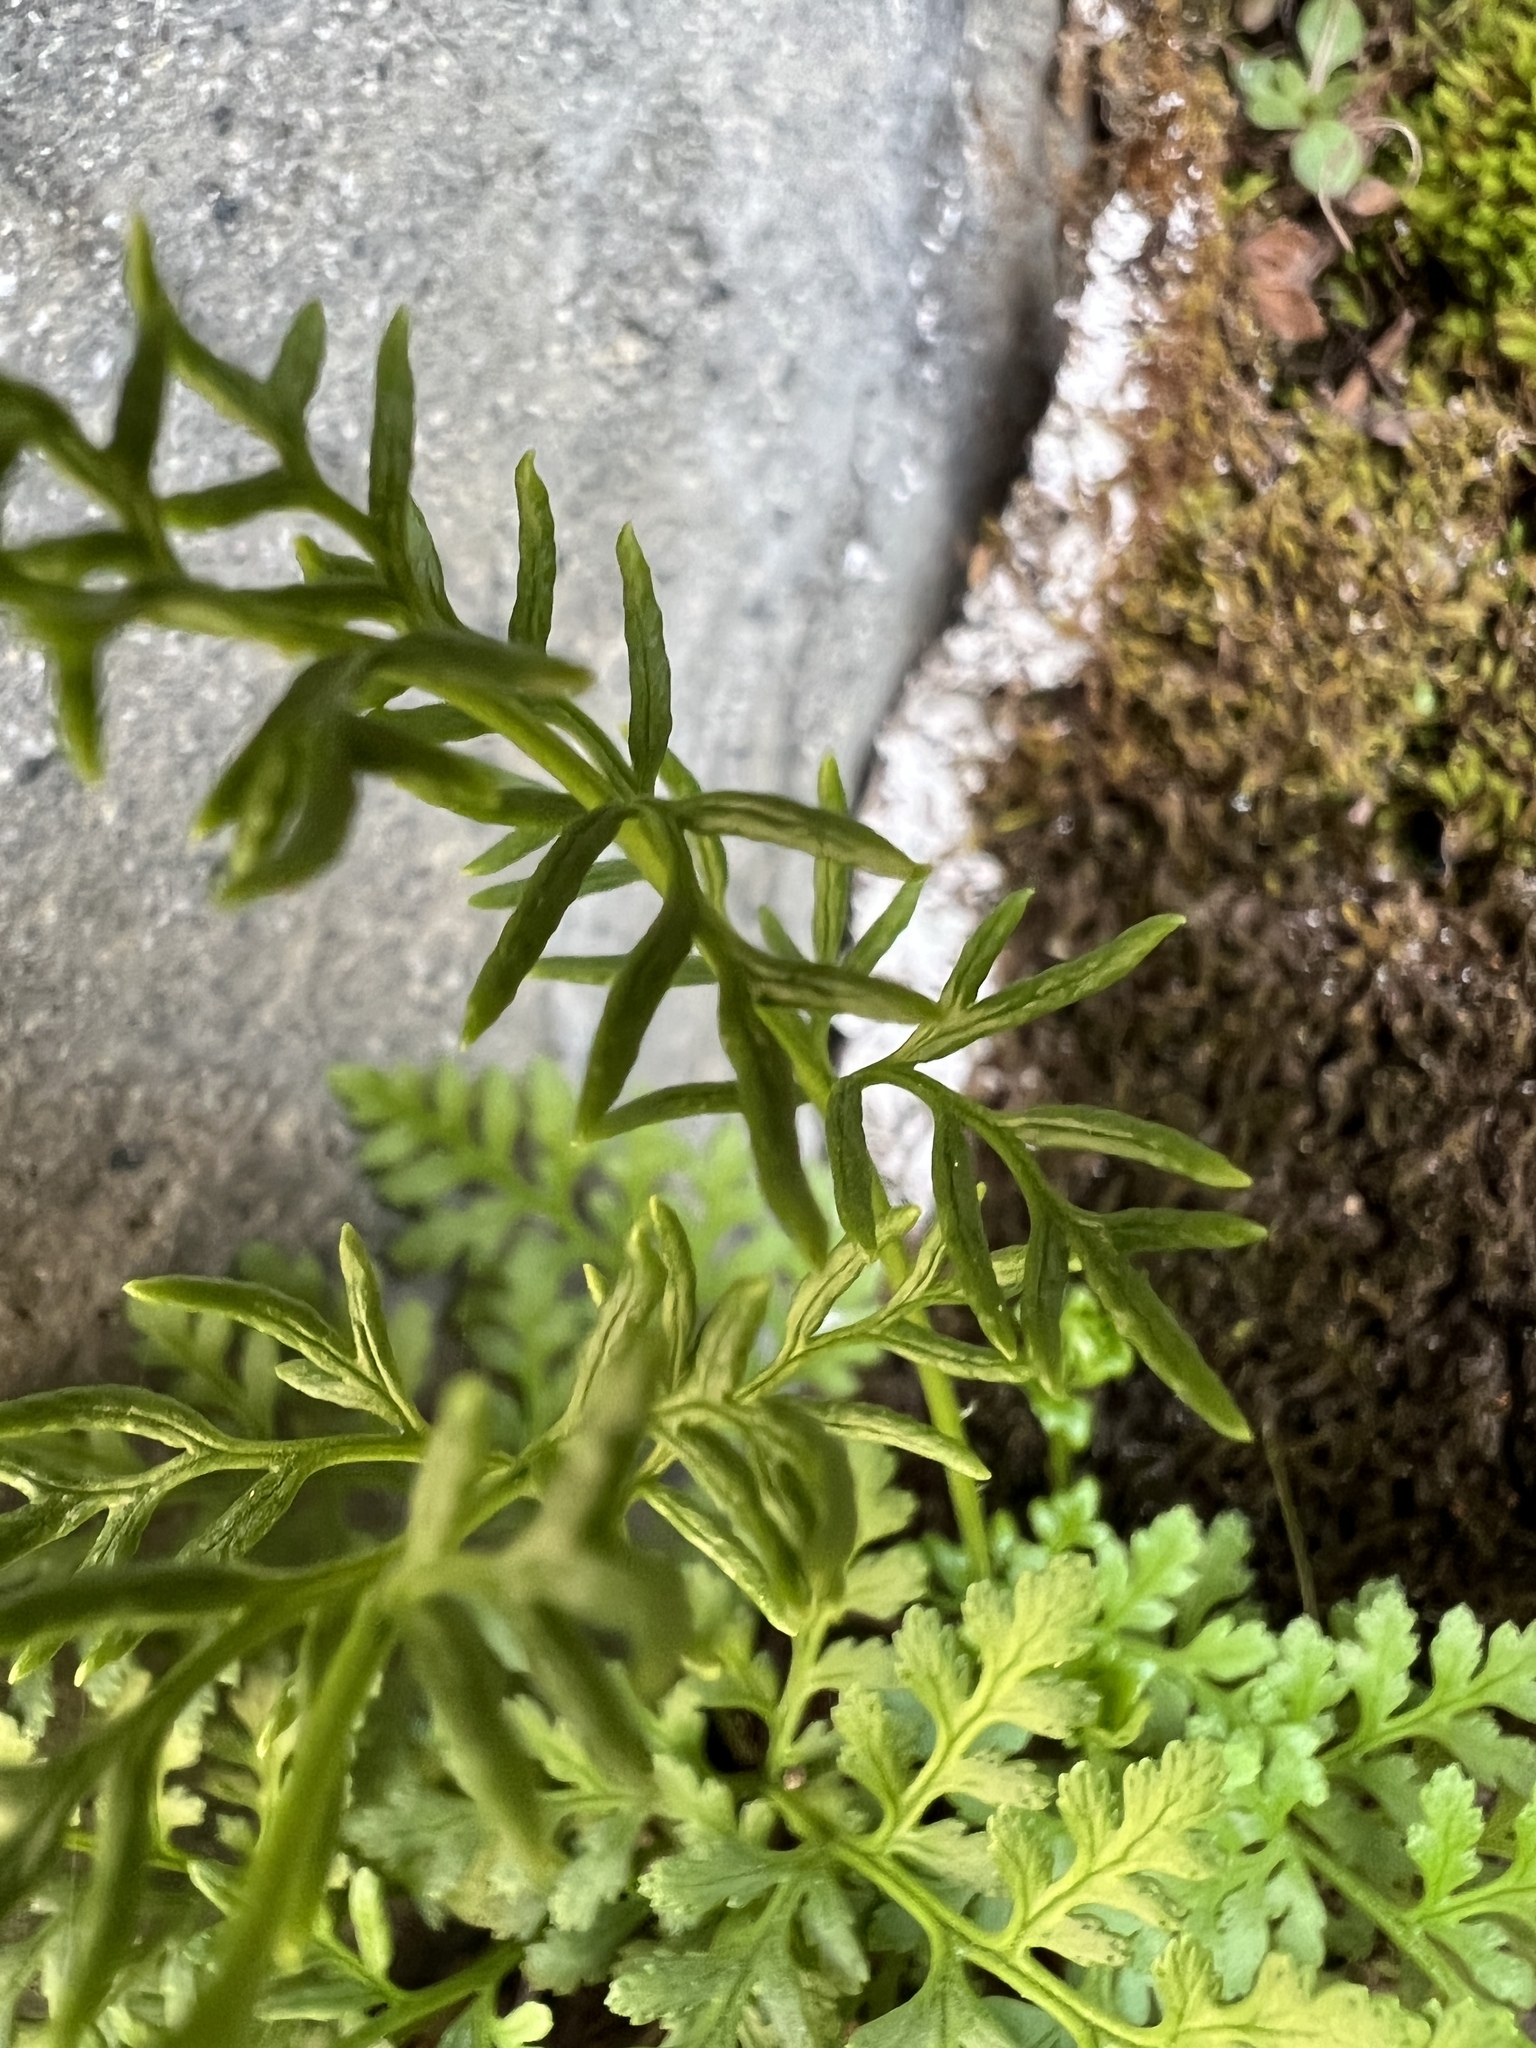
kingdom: Plantae
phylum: Tracheophyta
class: Polypodiopsida
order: Polypodiales
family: Pteridaceae
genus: Cryptogramma
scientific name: Cryptogramma acrostichoides
